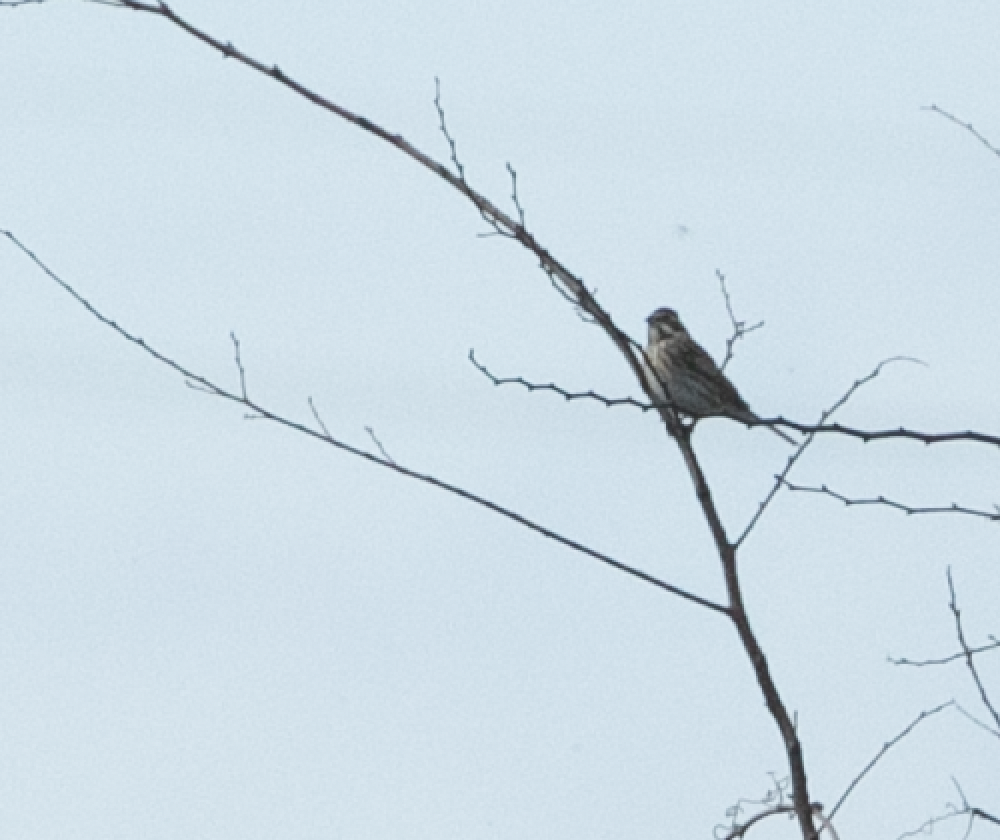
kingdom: Animalia
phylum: Chordata
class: Aves
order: Passeriformes
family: Emberizidae
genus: Emberiza
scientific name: Emberiza schoeniclus
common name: Reed bunting
